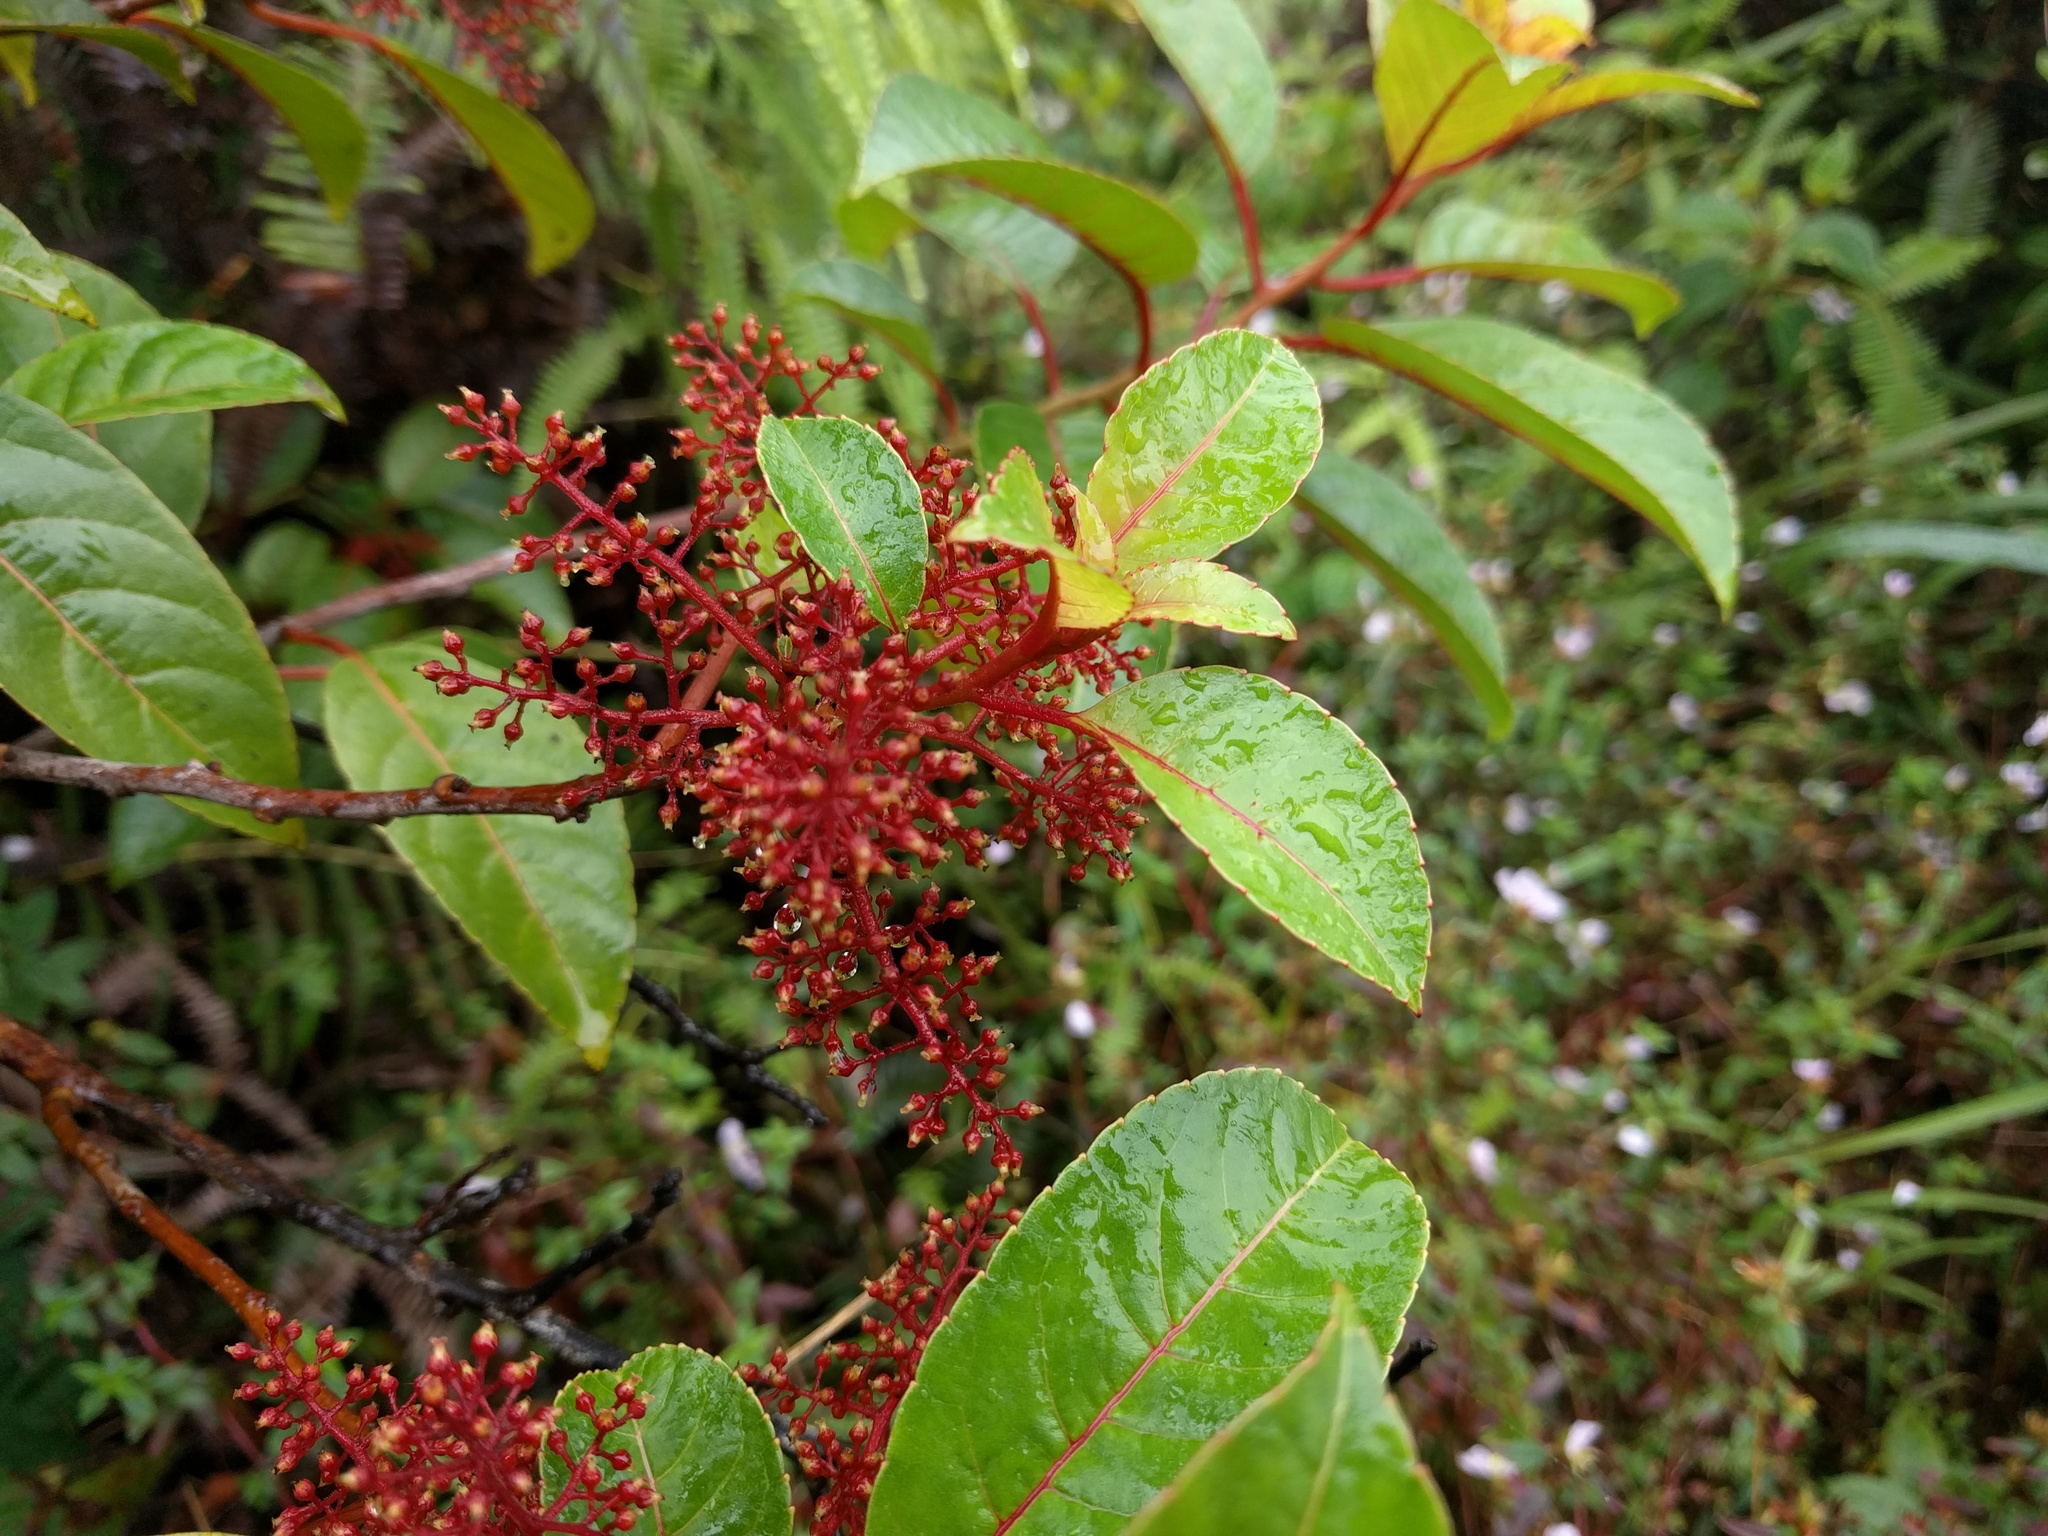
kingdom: Plantae
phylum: Tracheophyta
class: Magnoliopsida
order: Huerteales
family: Dipentodontaceae
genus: Perrottetia
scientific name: Perrottetia sandwicensis
